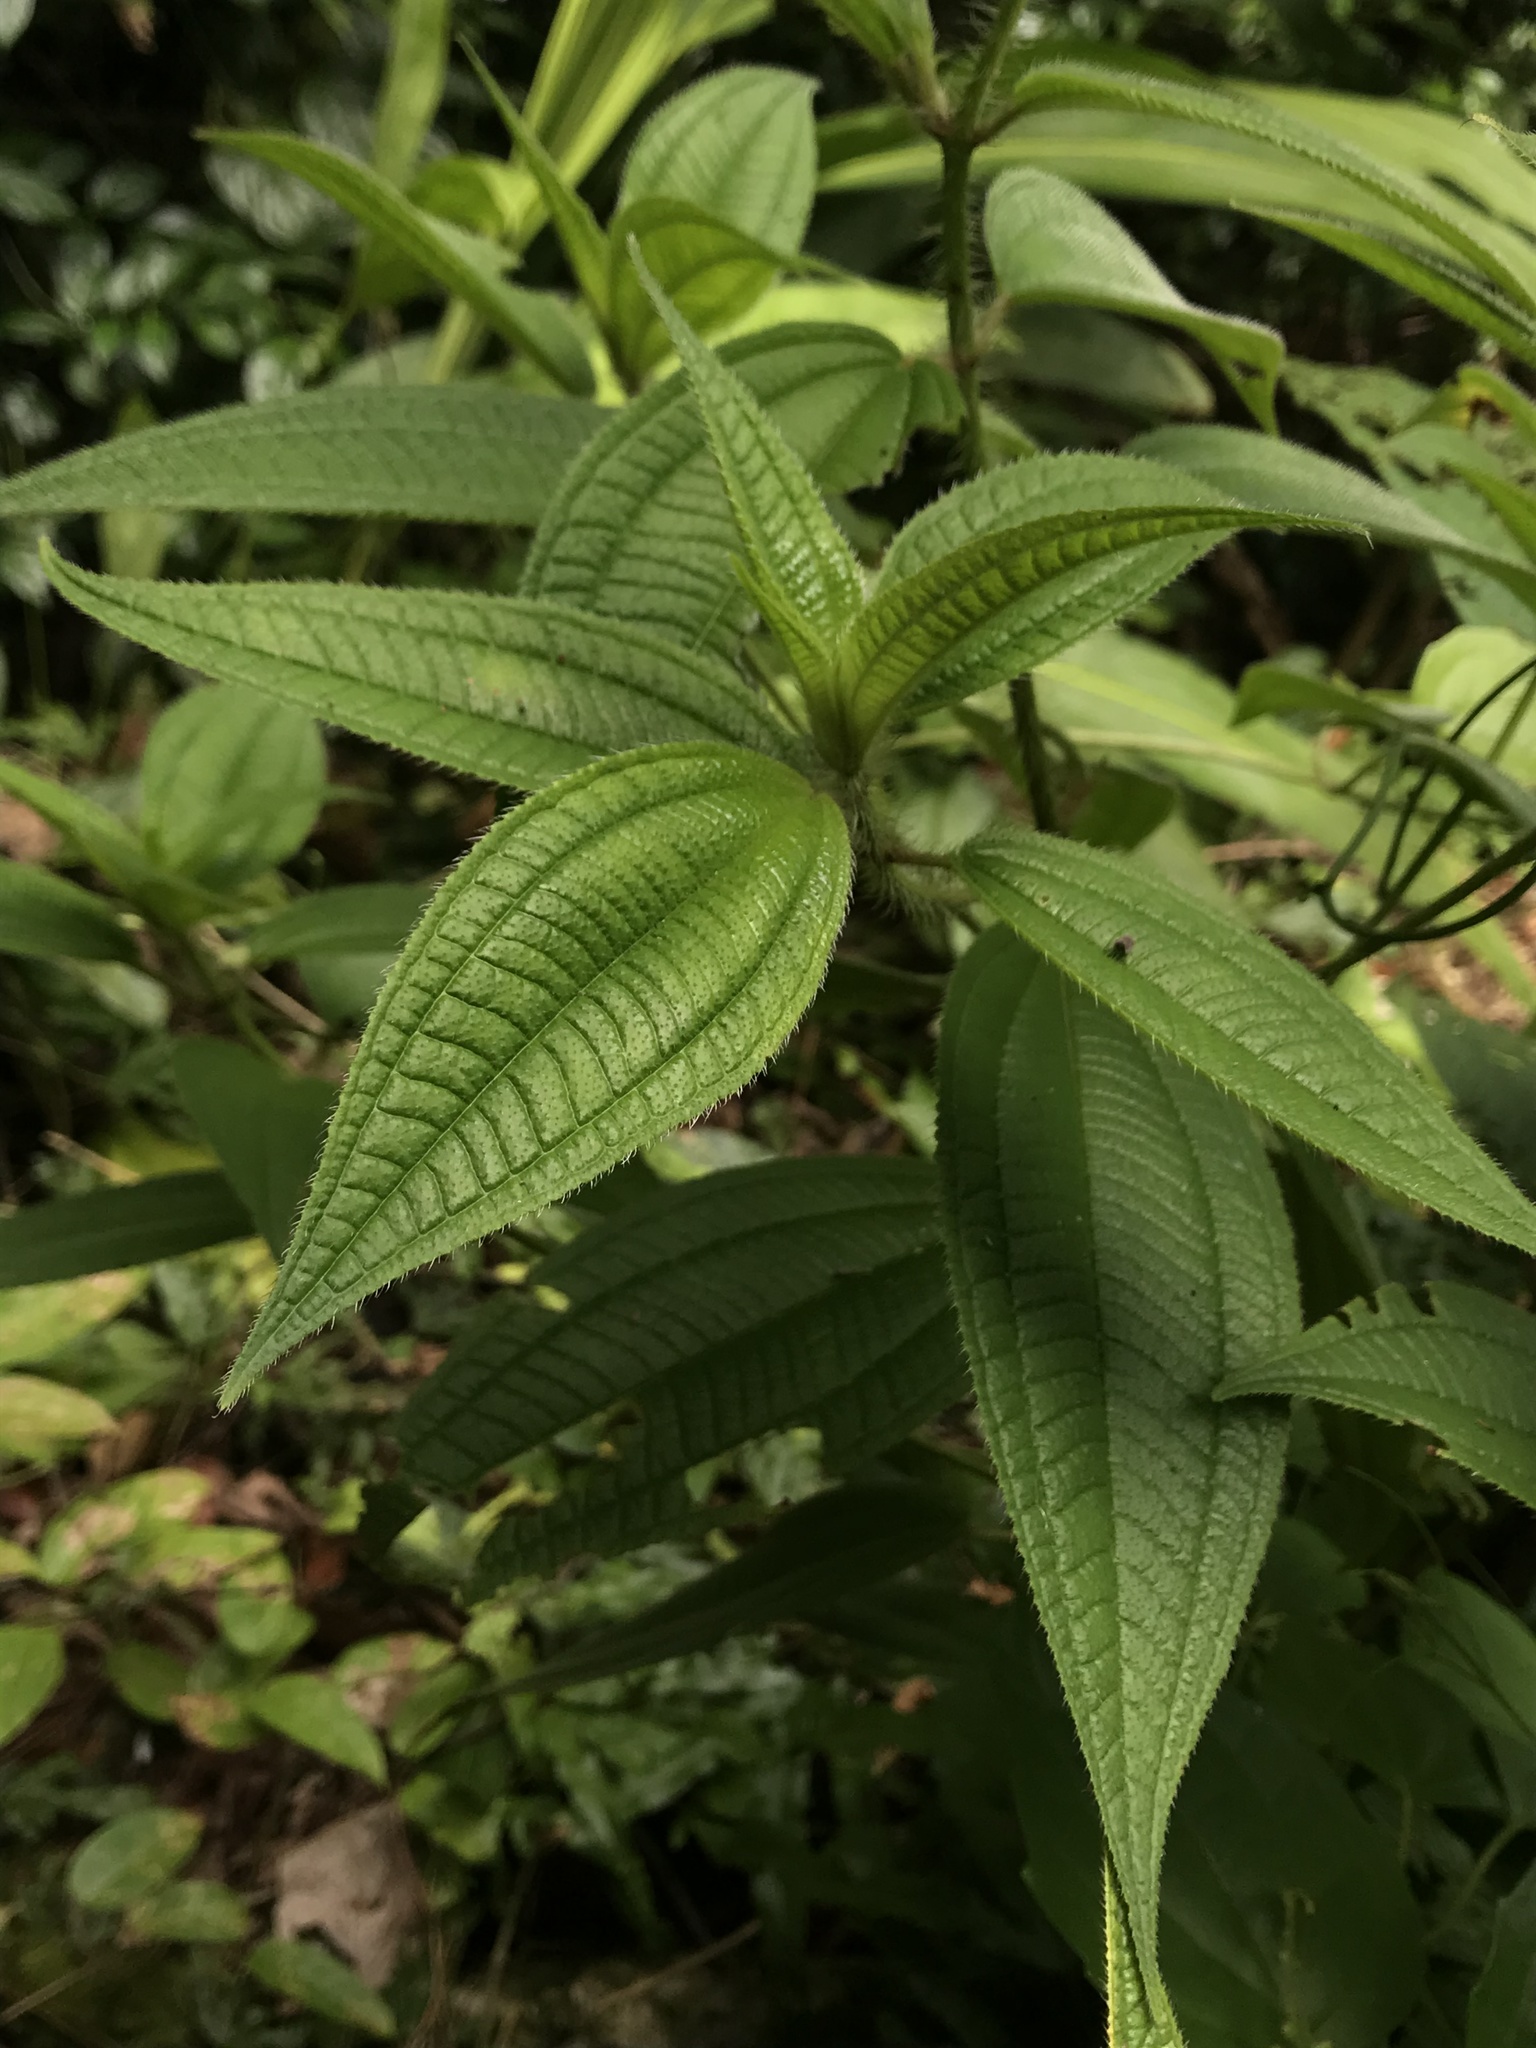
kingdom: Plantae
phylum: Tracheophyta
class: Magnoliopsida
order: Myrtales
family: Melastomataceae
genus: Miconia
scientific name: Miconia lacera
